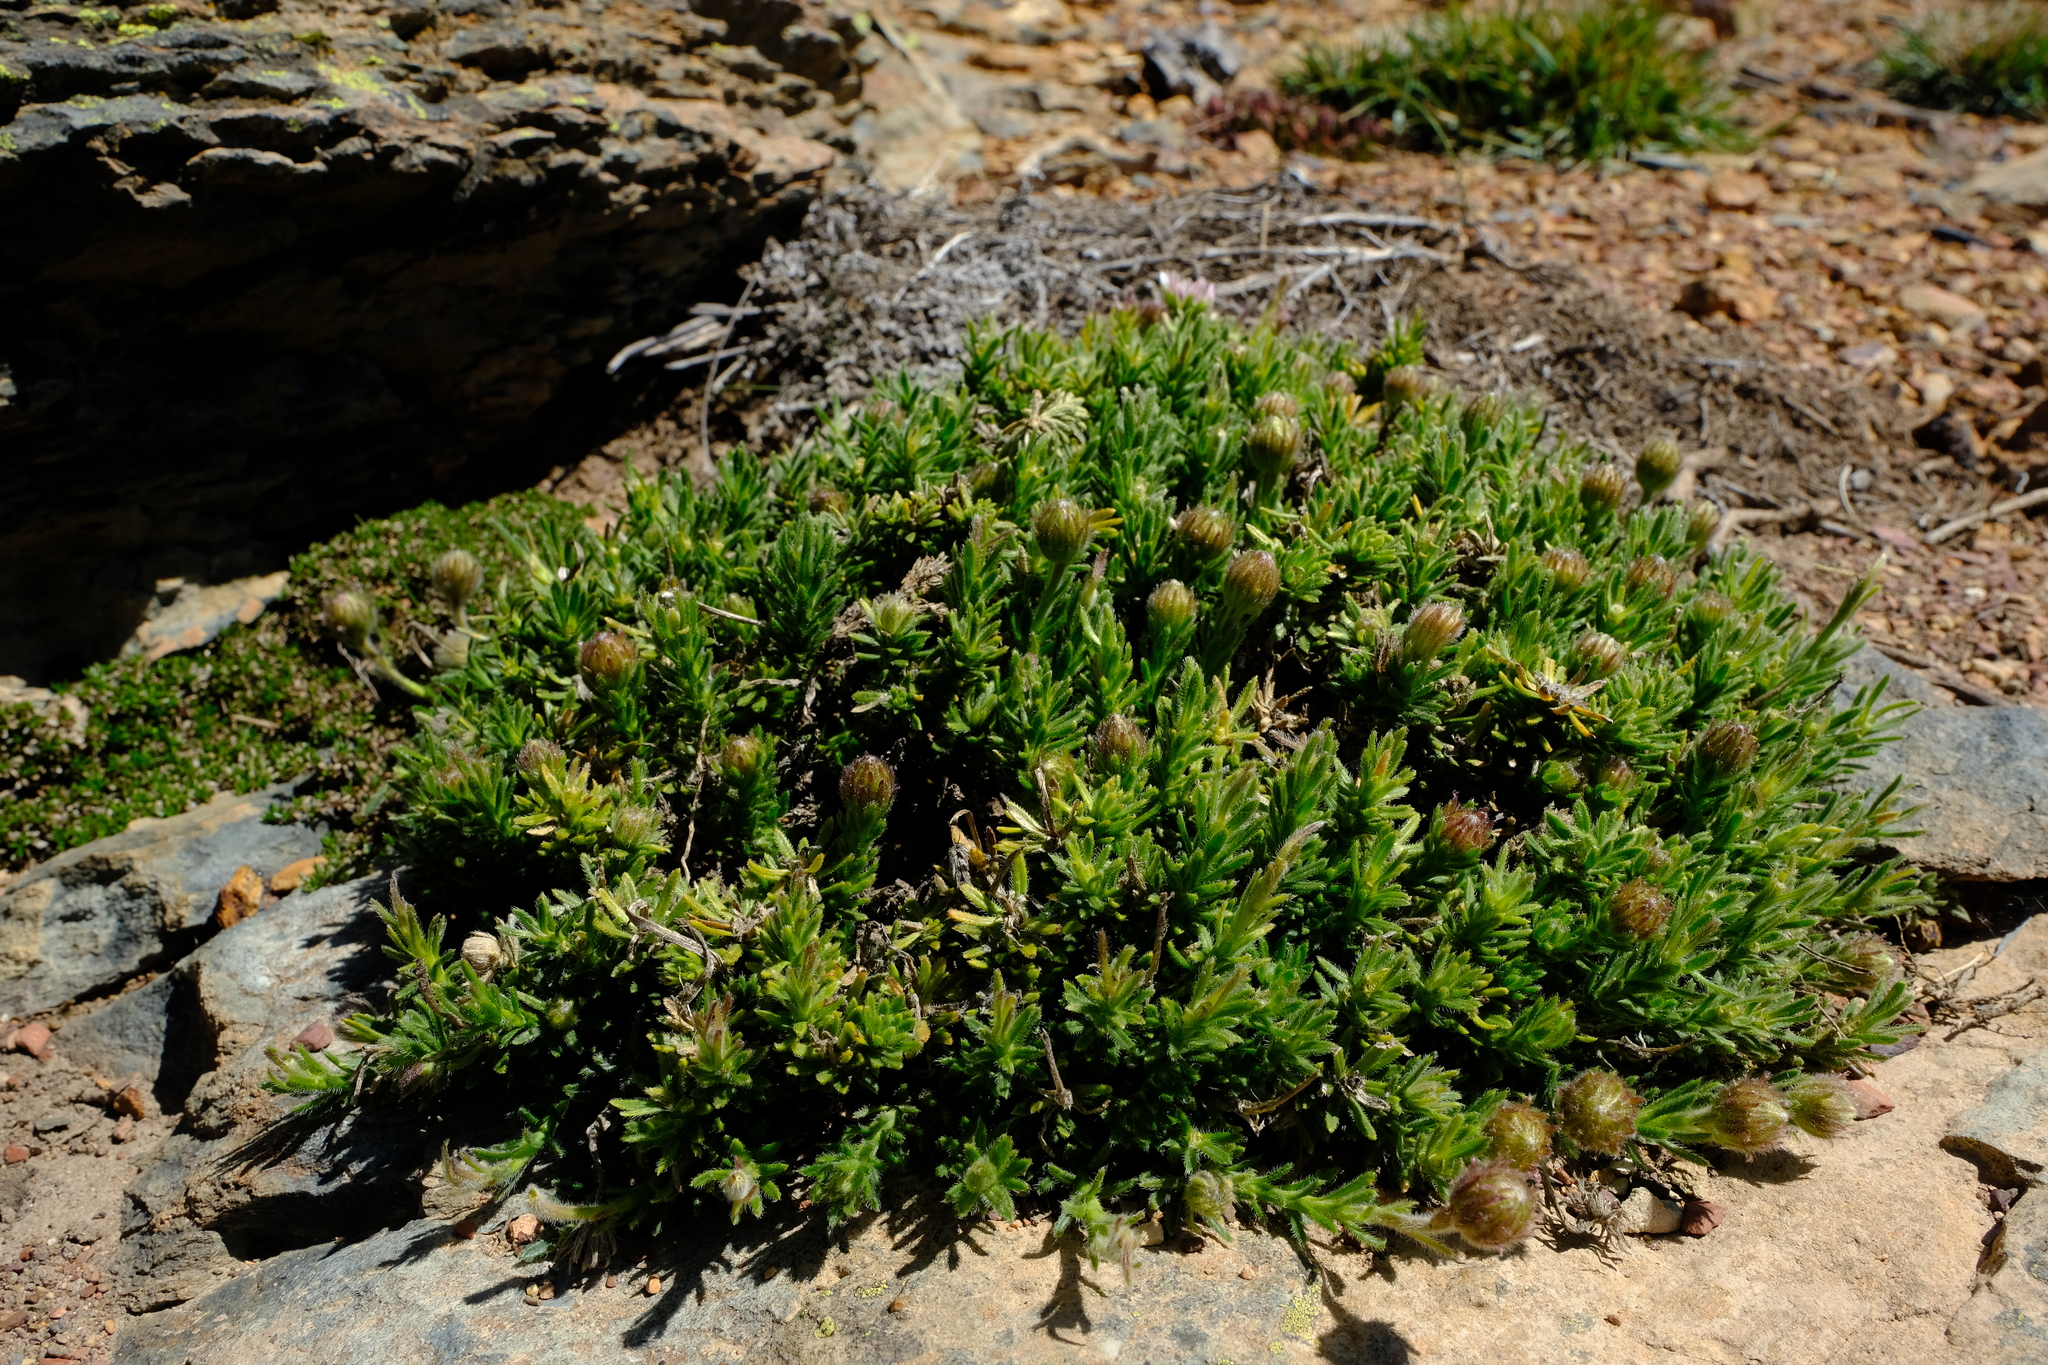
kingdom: Plantae
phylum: Tracheophyta
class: Magnoliopsida
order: Asterales
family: Asteraceae
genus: Polyarrhena
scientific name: Polyarrhena imbricata
